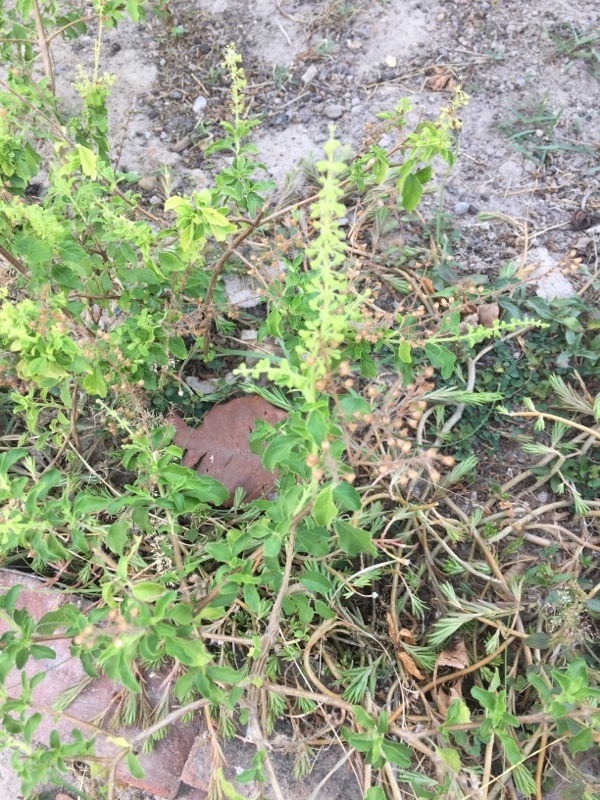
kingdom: Plantae
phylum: Tracheophyta
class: Magnoliopsida
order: Lamiales
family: Lamiaceae
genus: Ocimum
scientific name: Ocimum tenuiflorum
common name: Sacred basil
